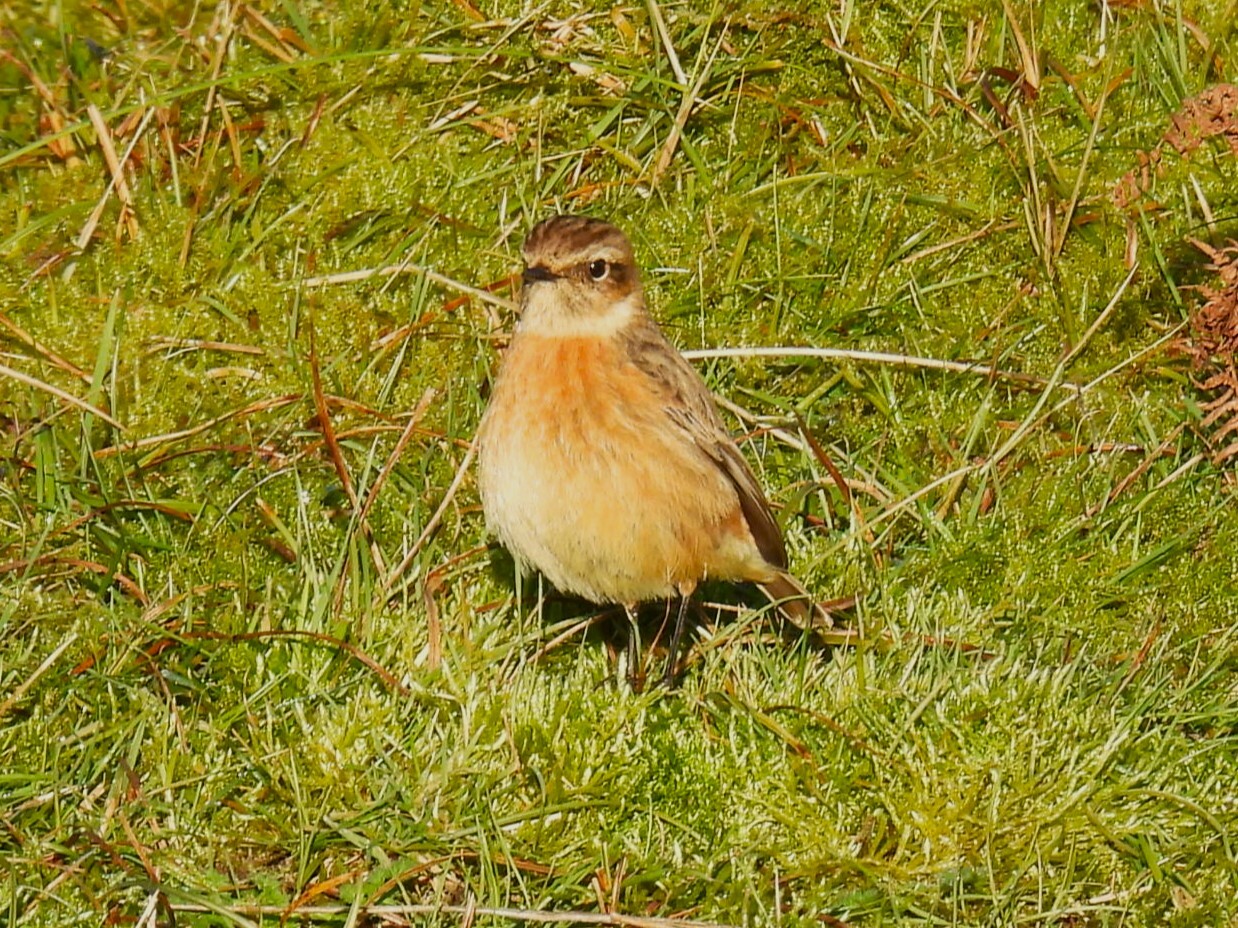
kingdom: Animalia
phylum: Chordata
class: Aves
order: Passeriformes
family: Muscicapidae
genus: Saxicola
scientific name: Saxicola rubicola
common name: European stonechat
